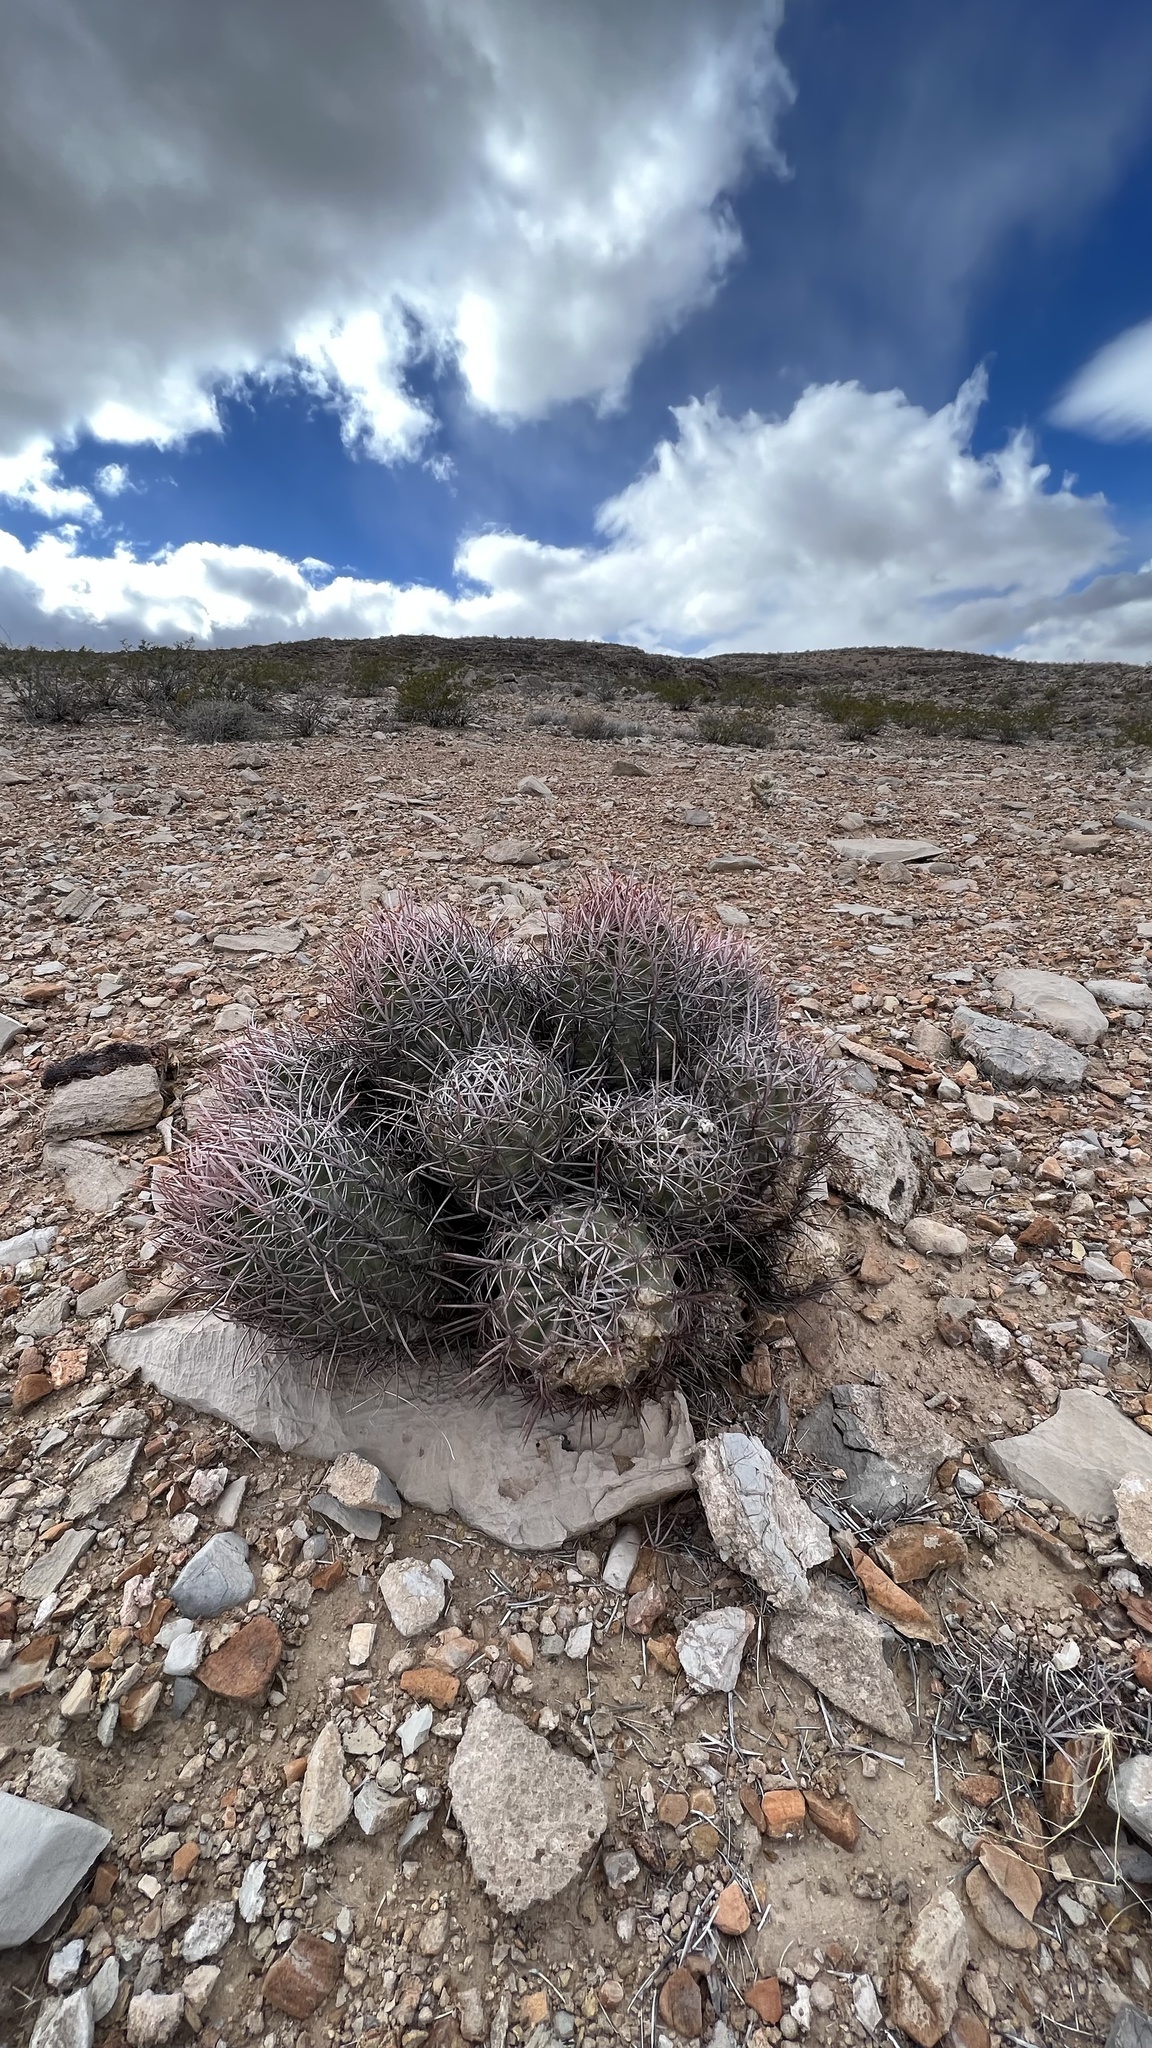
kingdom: Plantae
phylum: Tracheophyta
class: Magnoliopsida
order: Caryophyllales
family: Cactaceae
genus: Echinocactus
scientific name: Echinocactus polycephalus
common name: Cottontop cactus
